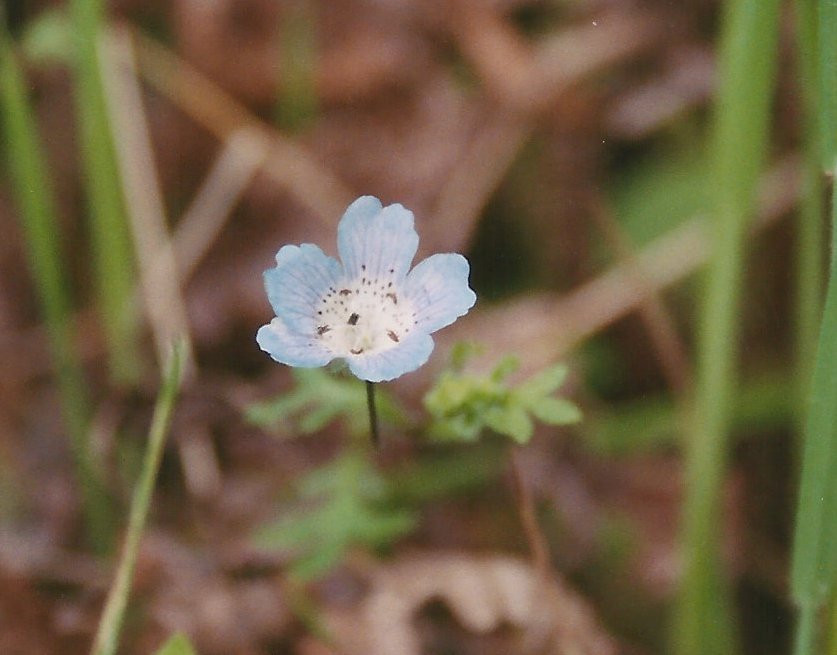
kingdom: Plantae
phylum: Tracheophyta
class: Magnoliopsida
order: Boraginales
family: Hydrophyllaceae
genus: Nemophila
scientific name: Nemophila menziesii
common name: Baby's-blue-eyes
